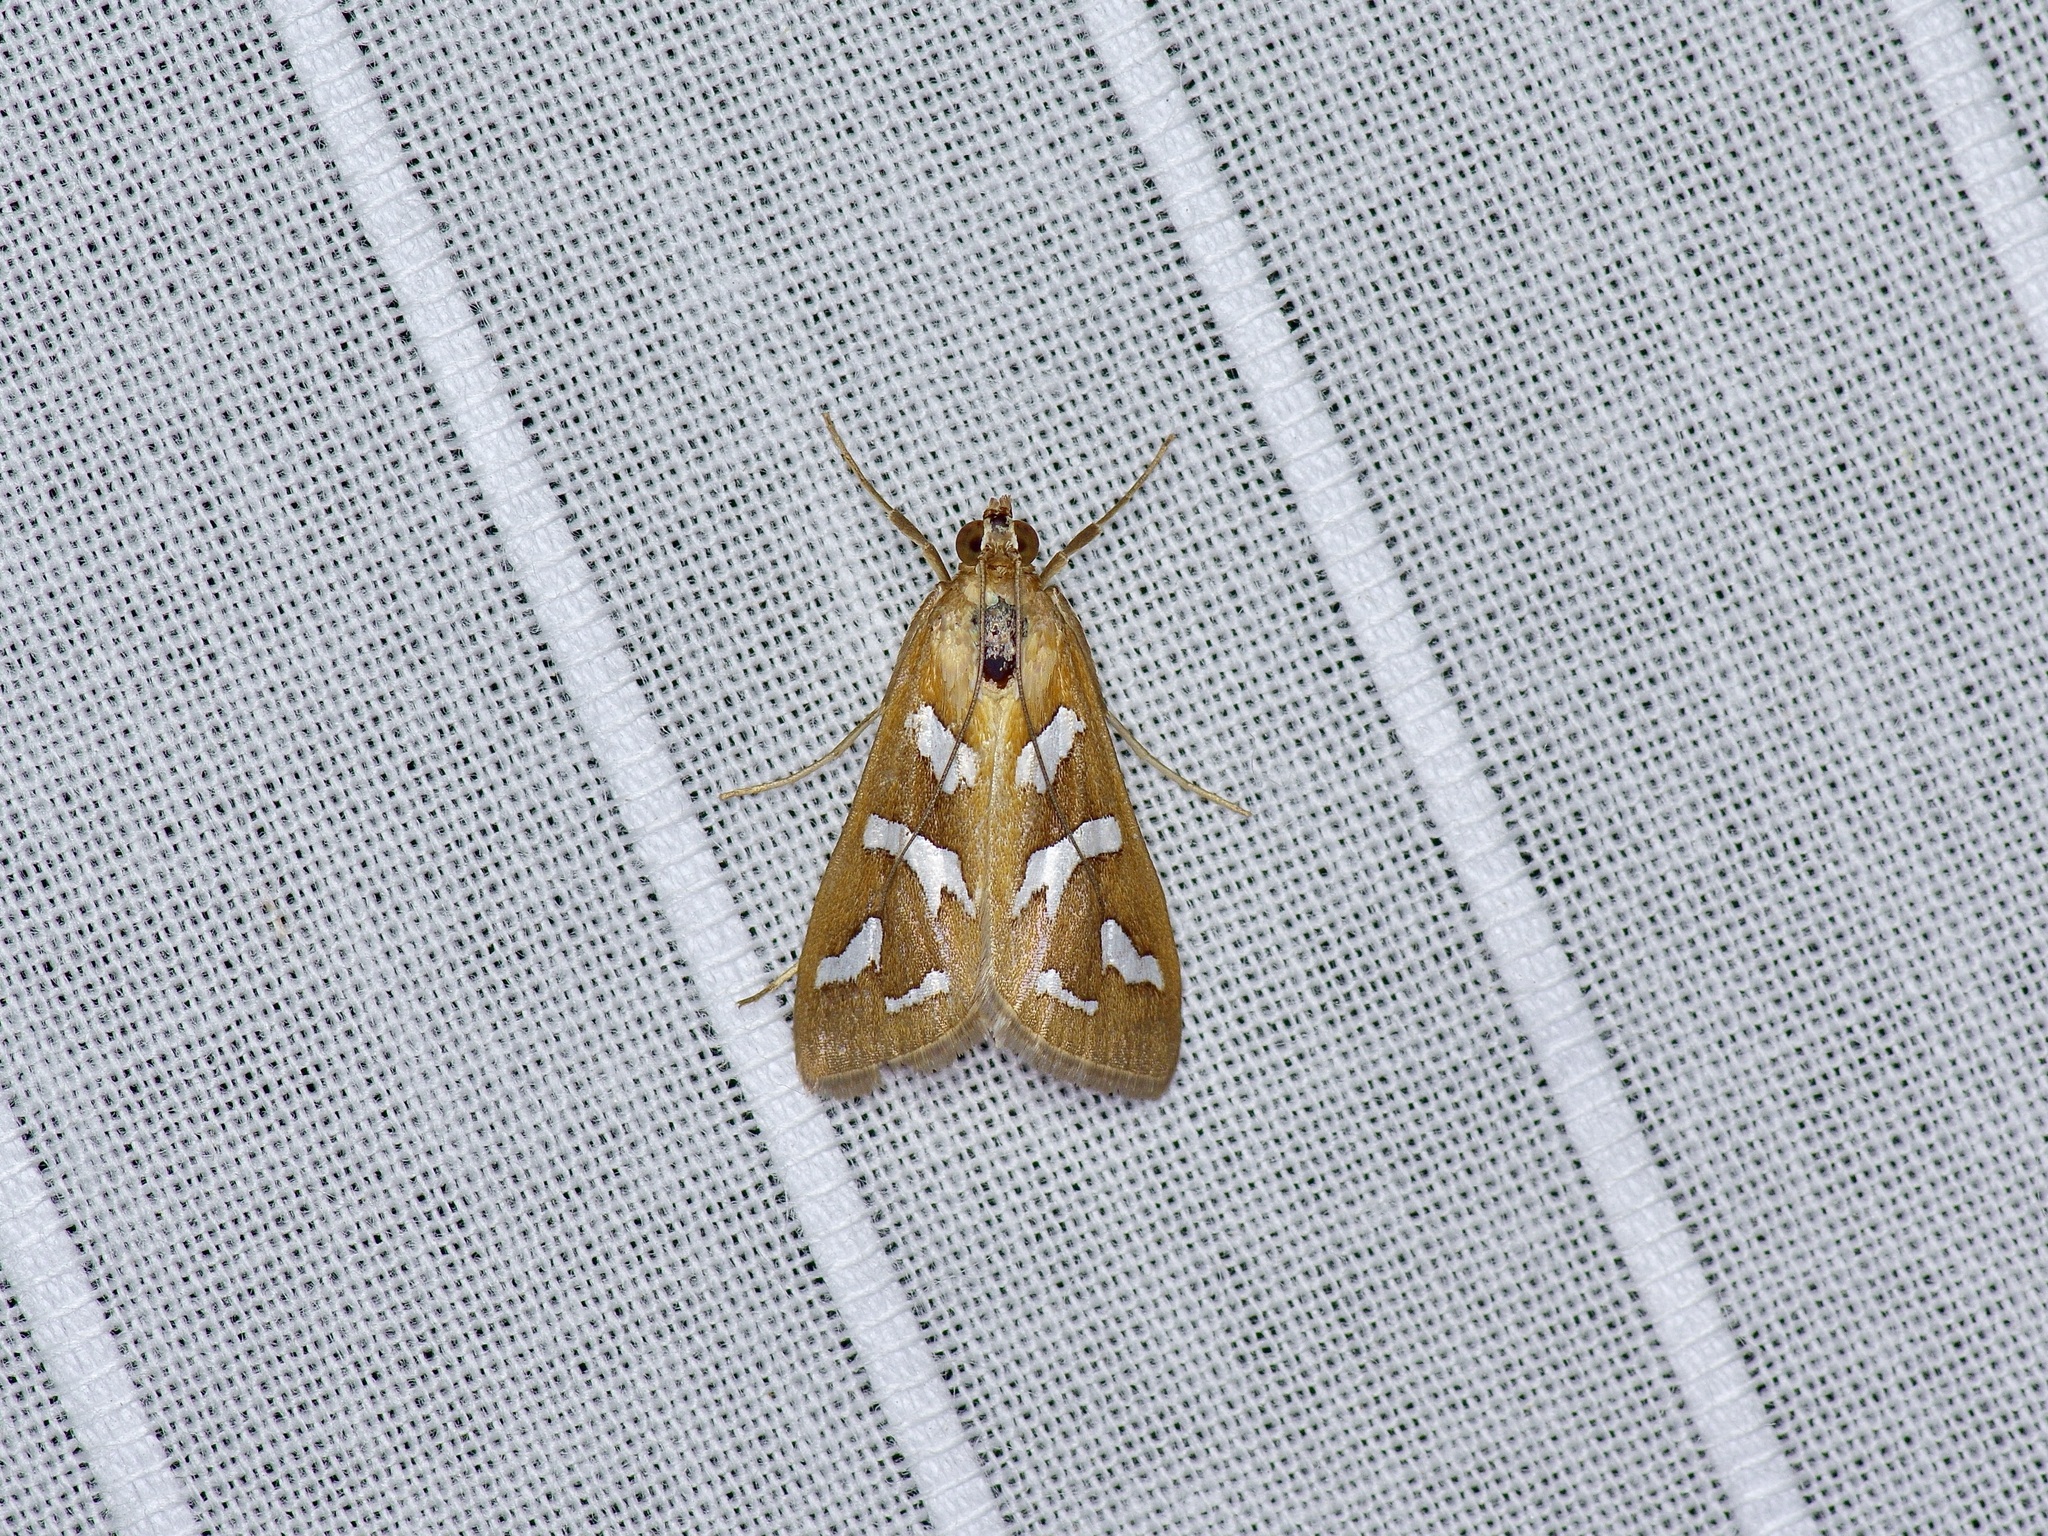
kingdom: Animalia
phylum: Arthropoda
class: Insecta
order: Lepidoptera
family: Crambidae
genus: Diastictis
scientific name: Diastictis fracturalis
